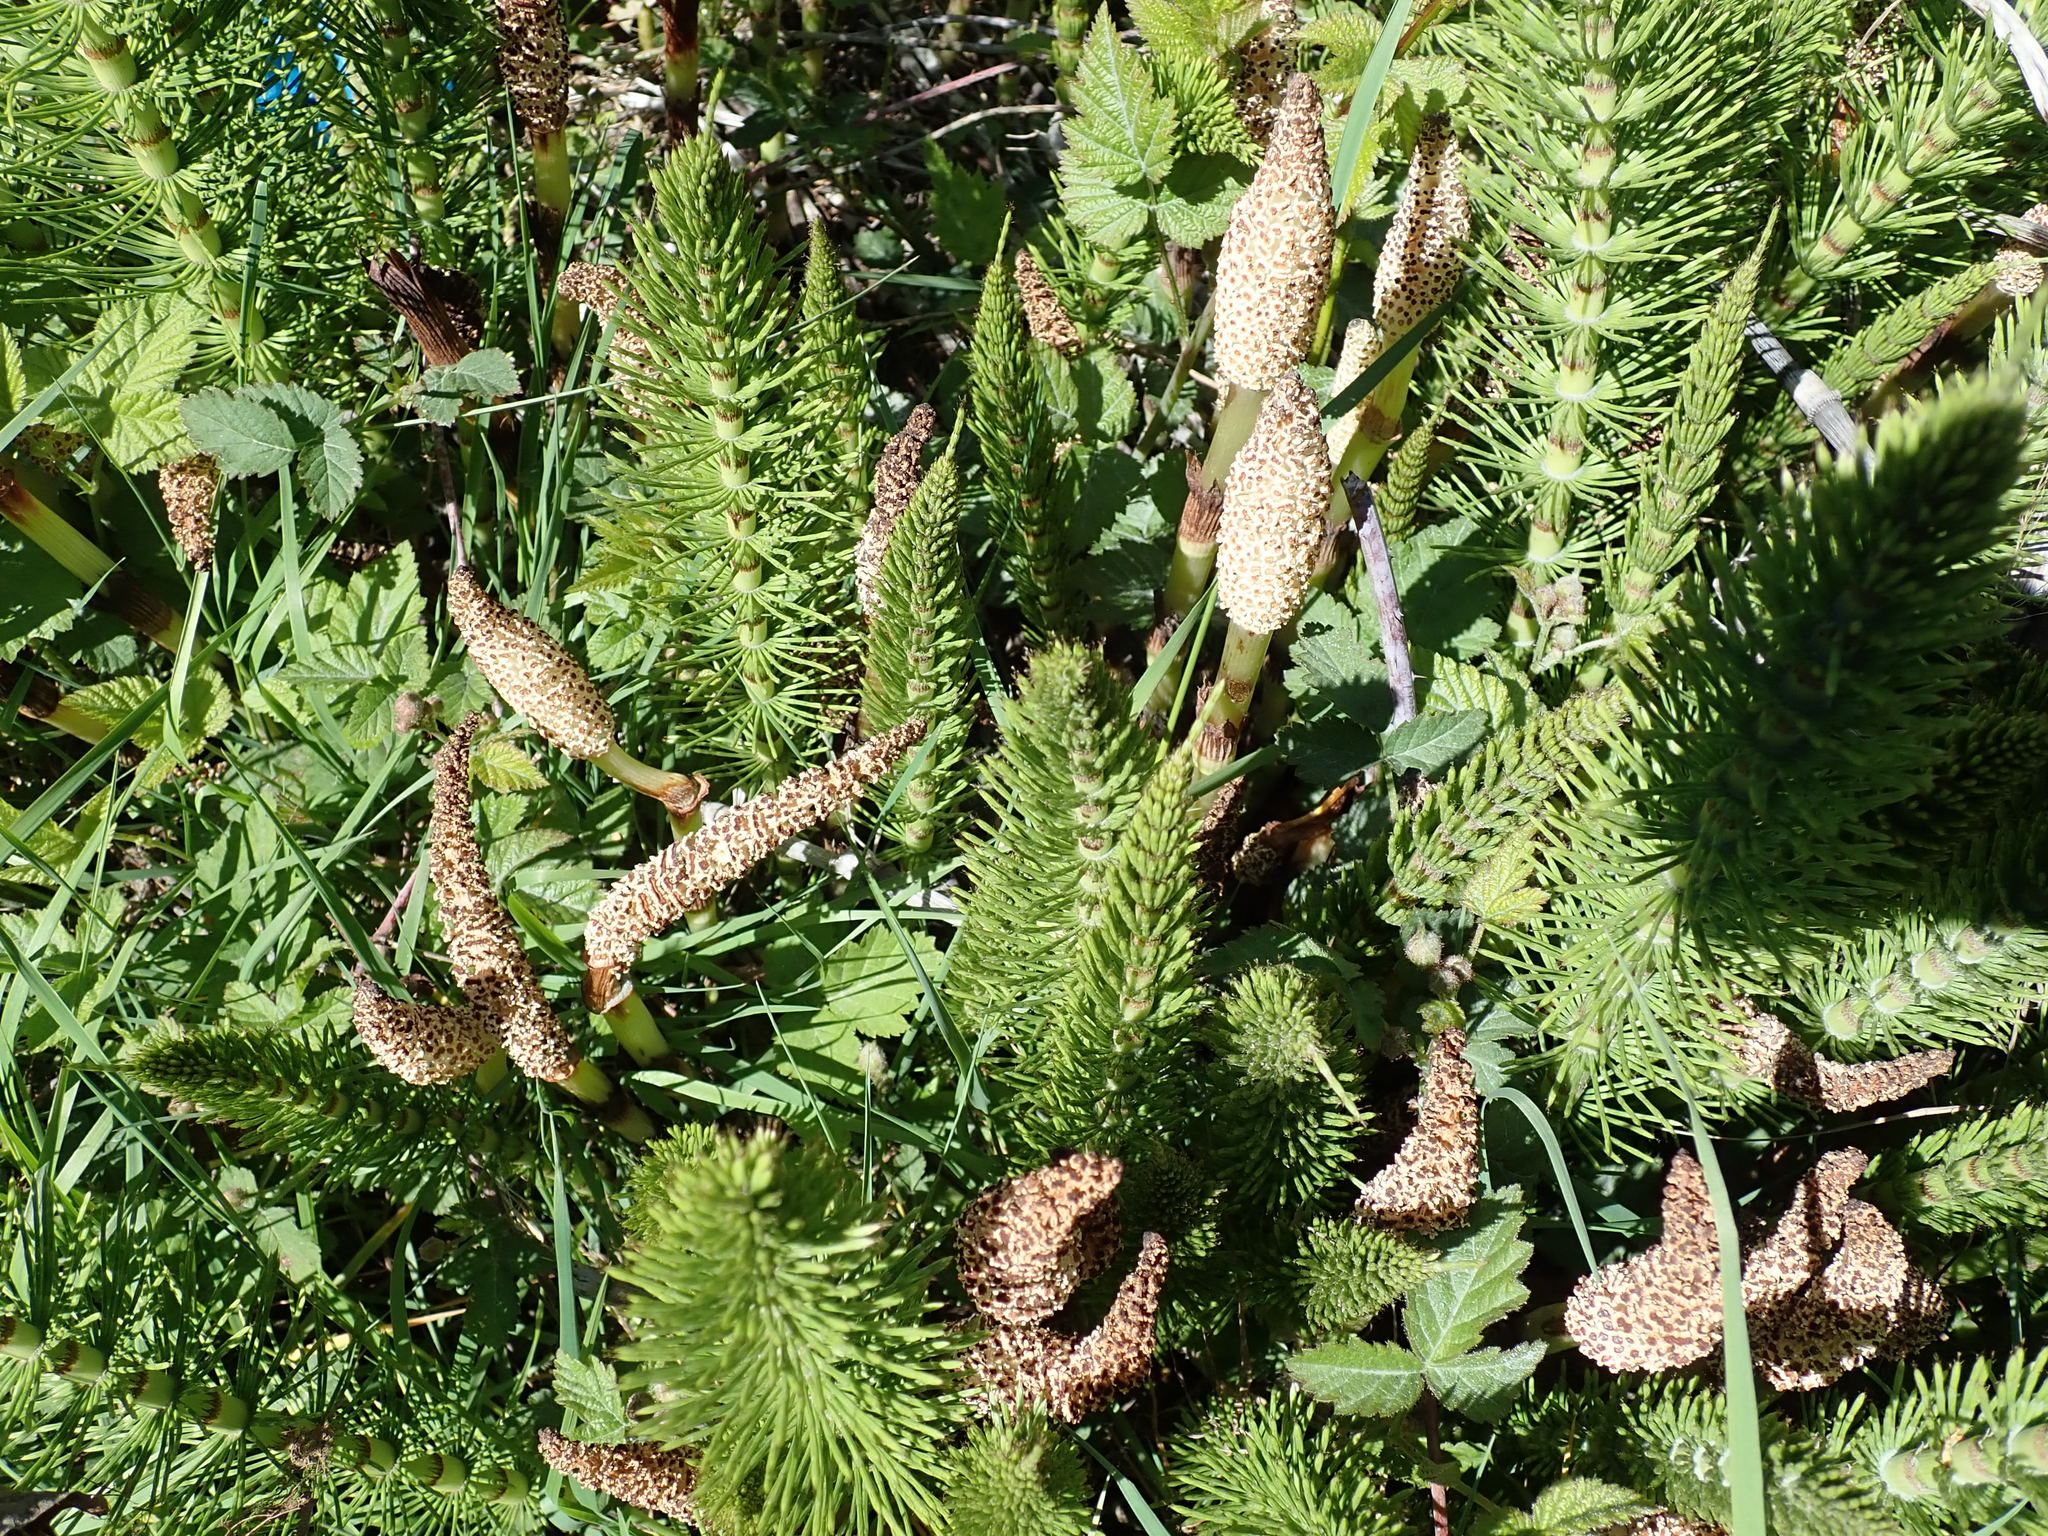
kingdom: Plantae
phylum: Tracheophyta
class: Polypodiopsida
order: Equisetales
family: Equisetaceae
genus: Equisetum
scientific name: Equisetum telmateia
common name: Great horsetail
